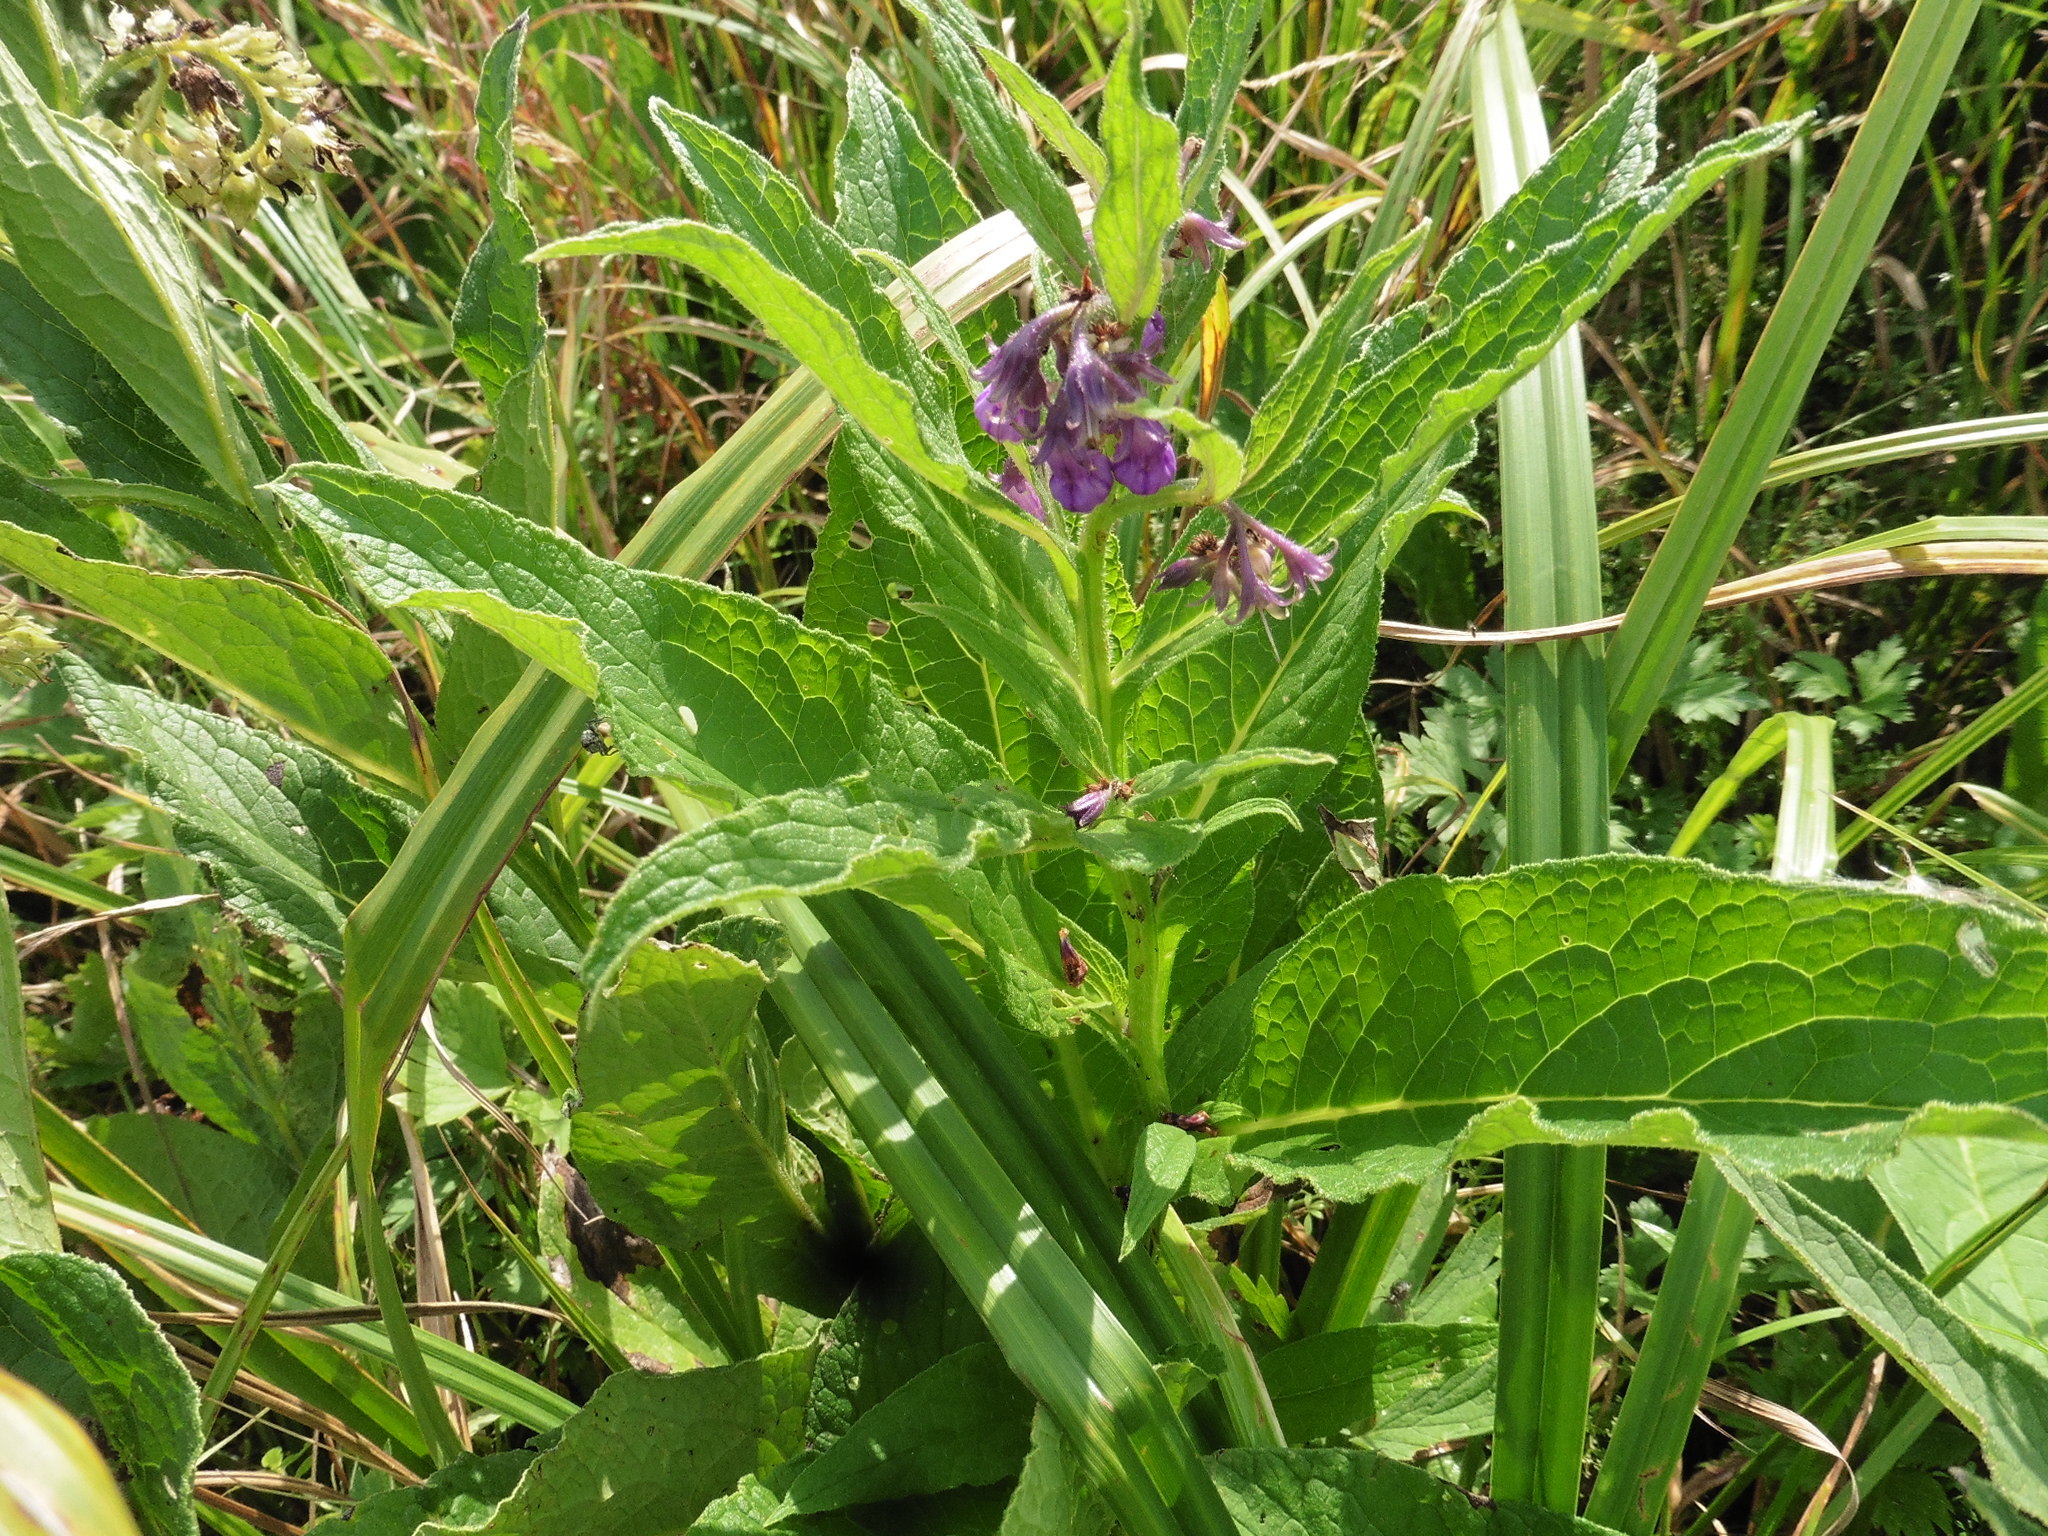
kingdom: Plantae
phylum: Tracheophyta
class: Magnoliopsida
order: Boraginales
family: Boraginaceae
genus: Symphytum
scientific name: Symphytum officinale
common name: Common comfrey
